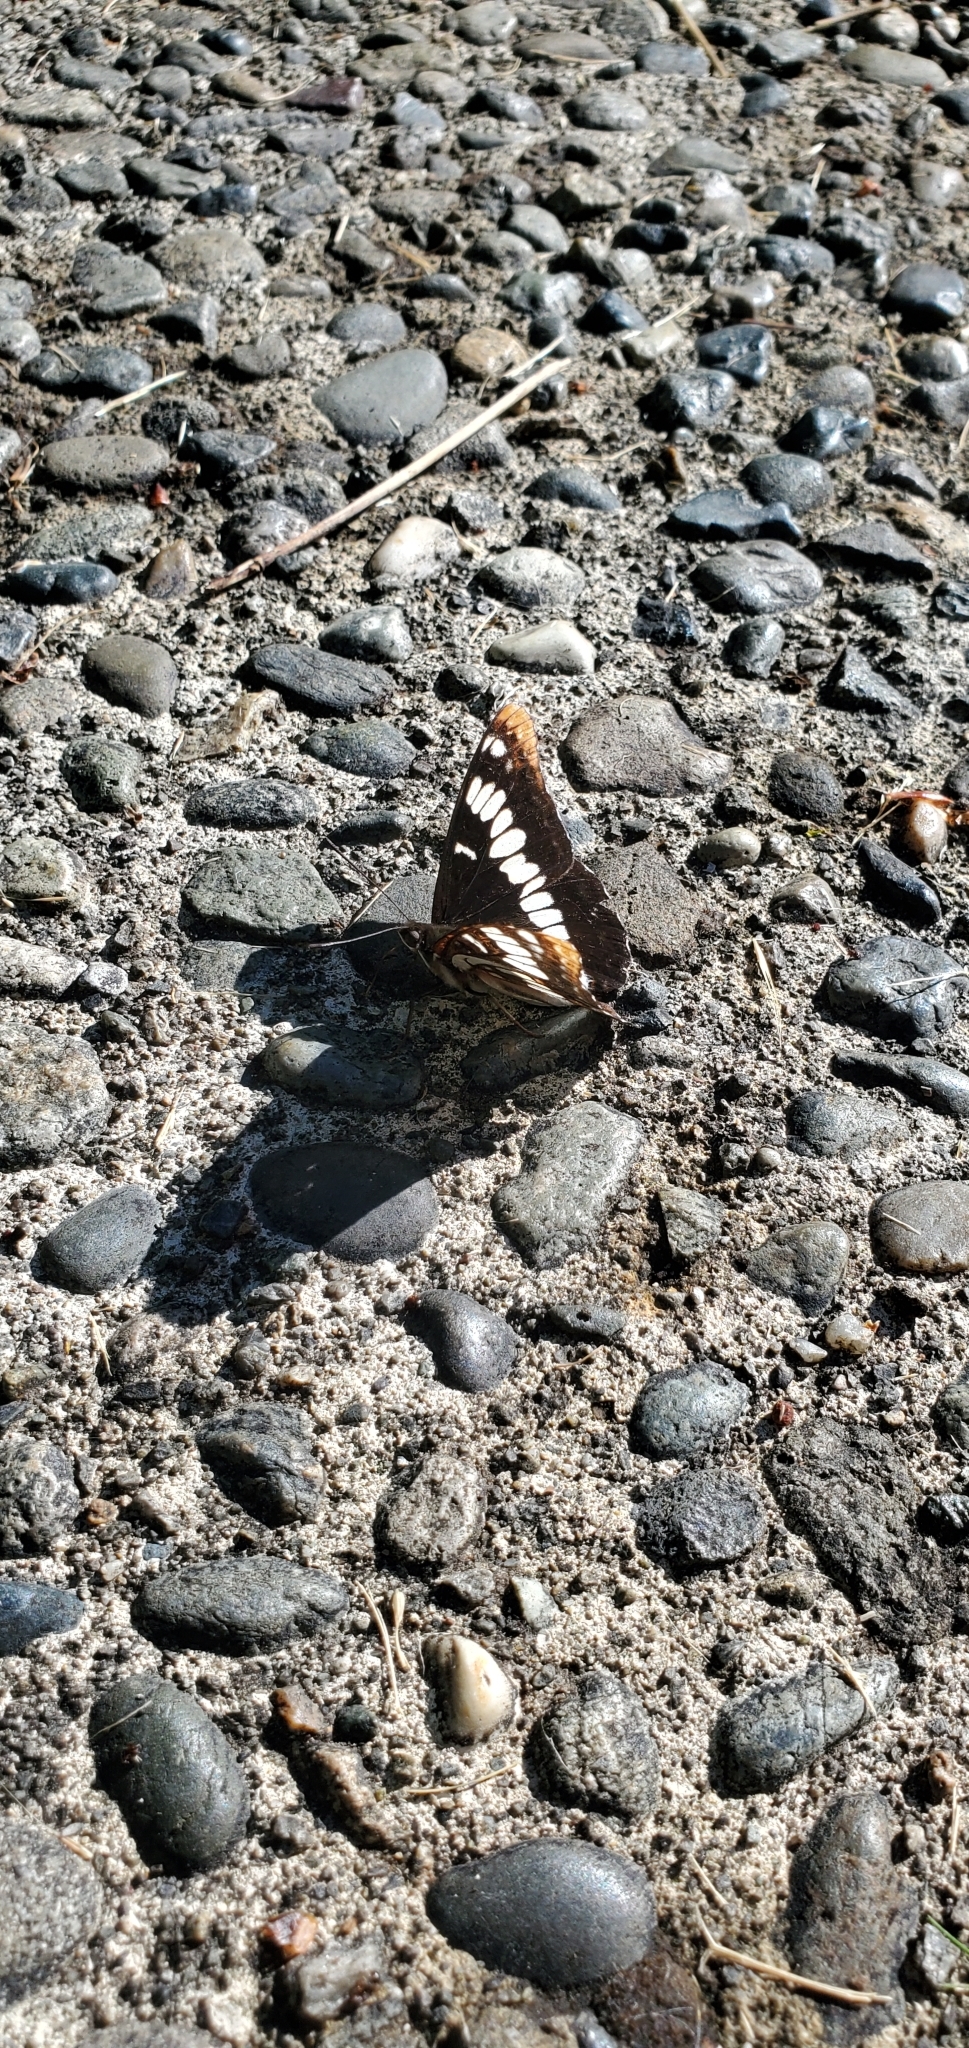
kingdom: Animalia
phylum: Arthropoda
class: Insecta
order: Lepidoptera
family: Nymphalidae
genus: Limenitis
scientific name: Limenitis lorquini
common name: Lorquin's admiral
